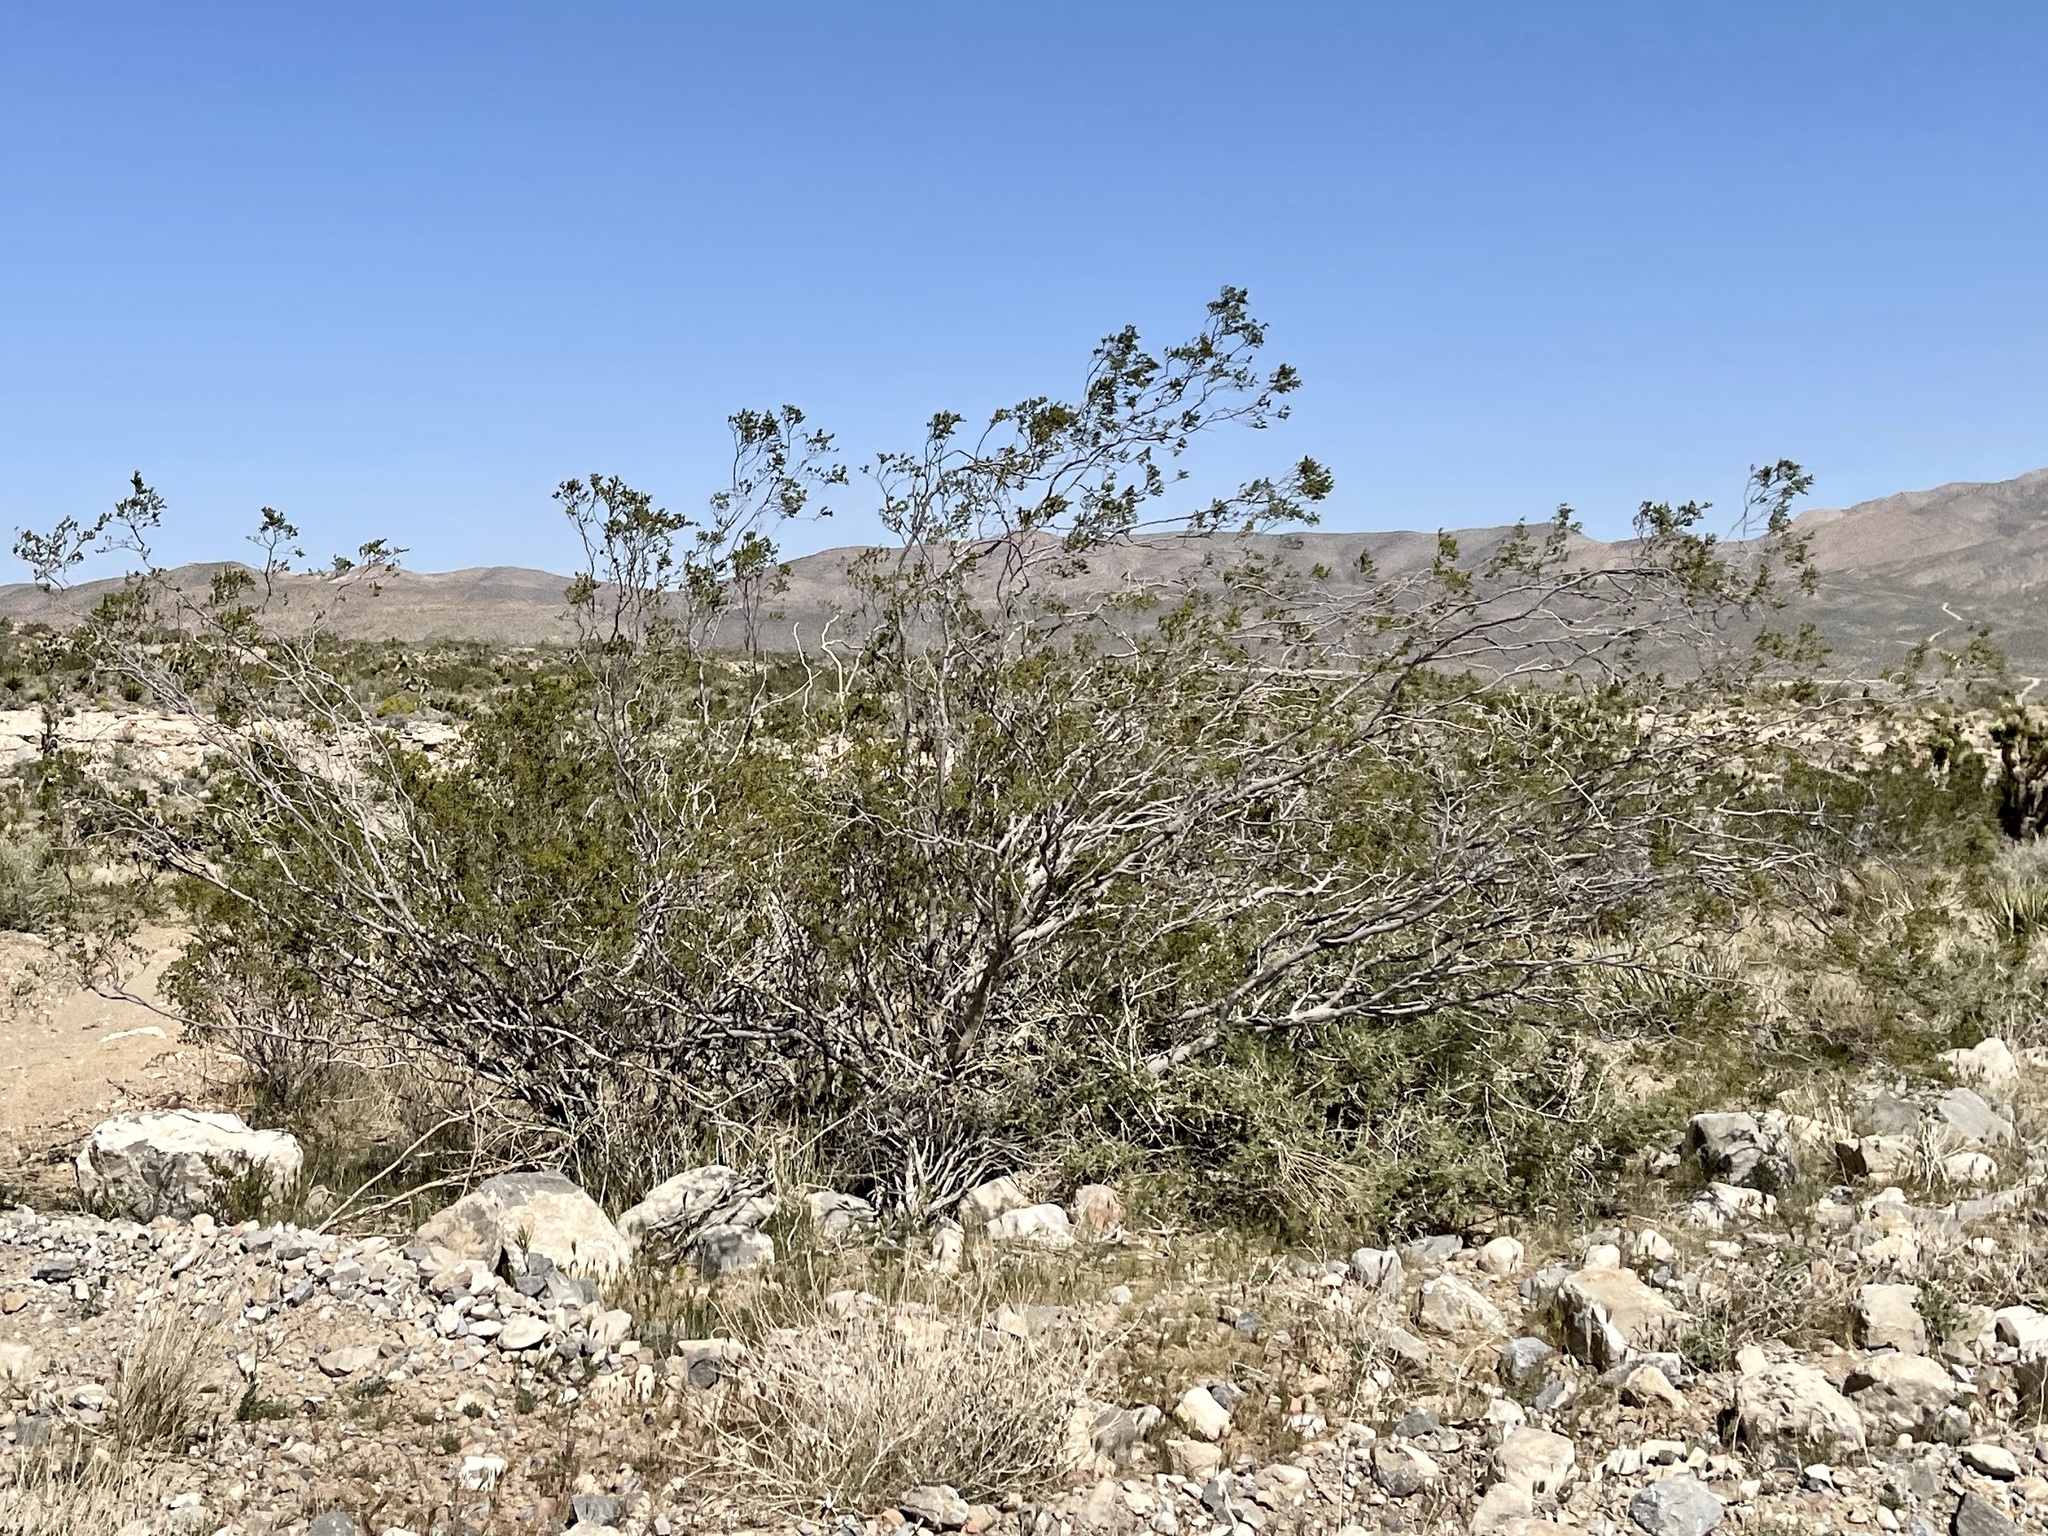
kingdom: Plantae
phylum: Tracheophyta
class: Magnoliopsida
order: Zygophyllales
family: Zygophyllaceae
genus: Larrea
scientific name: Larrea tridentata
